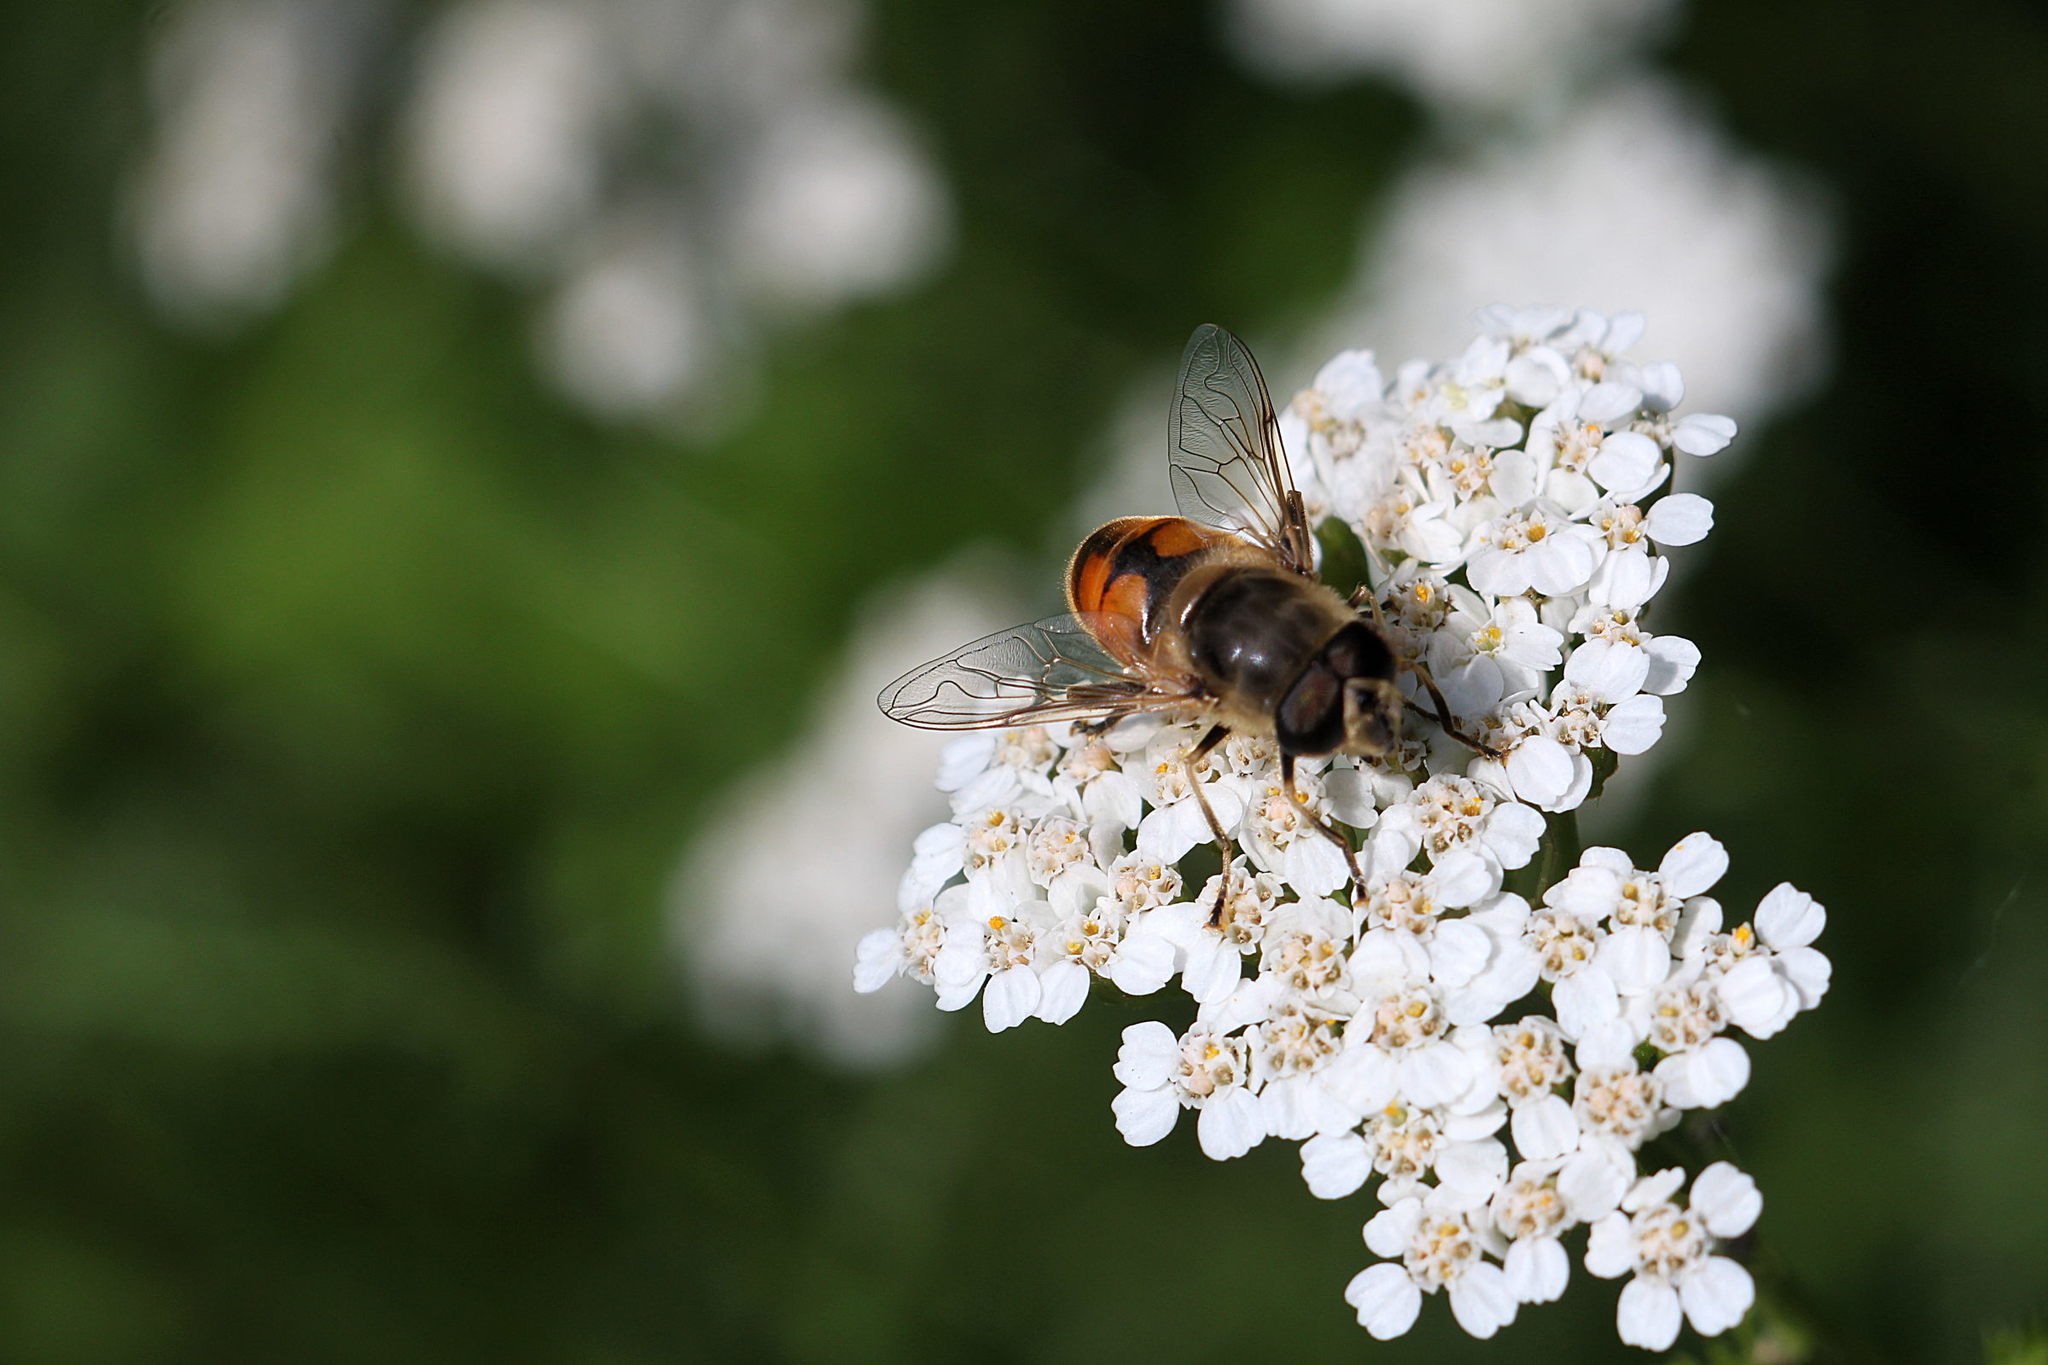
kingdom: Animalia
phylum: Arthropoda
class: Insecta
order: Diptera
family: Syrphidae
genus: Eristalis
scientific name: Eristalis tenax
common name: Drone fly
